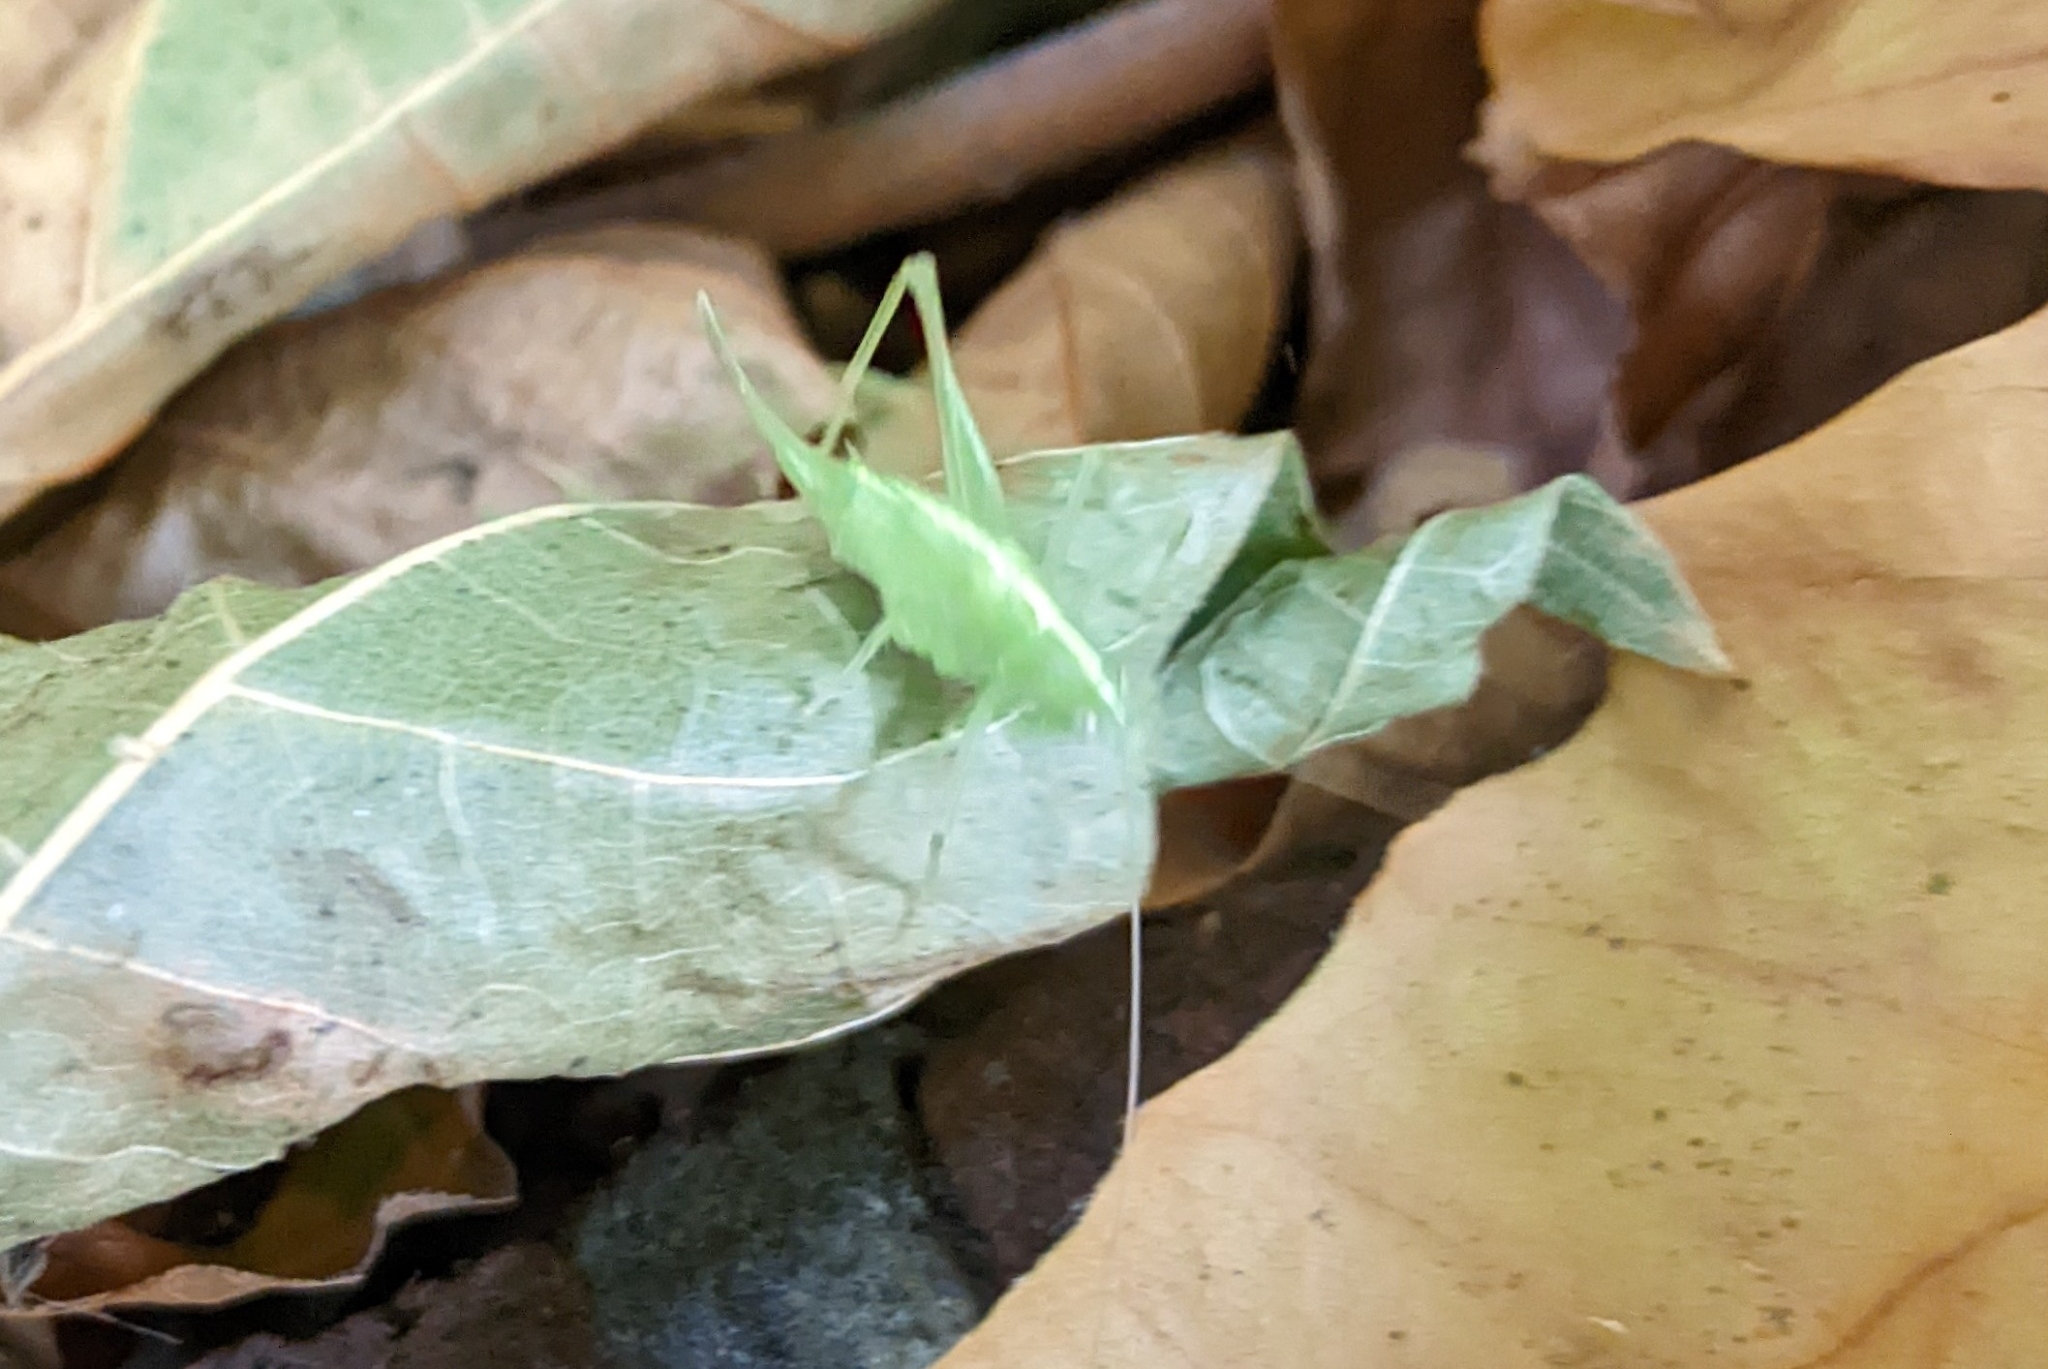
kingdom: Animalia
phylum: Arthropoda
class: Insecta
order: Orthoptera
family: Tettigoniidae
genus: Meconema
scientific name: Meconema meridionale
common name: Southern oak bush-cricket
